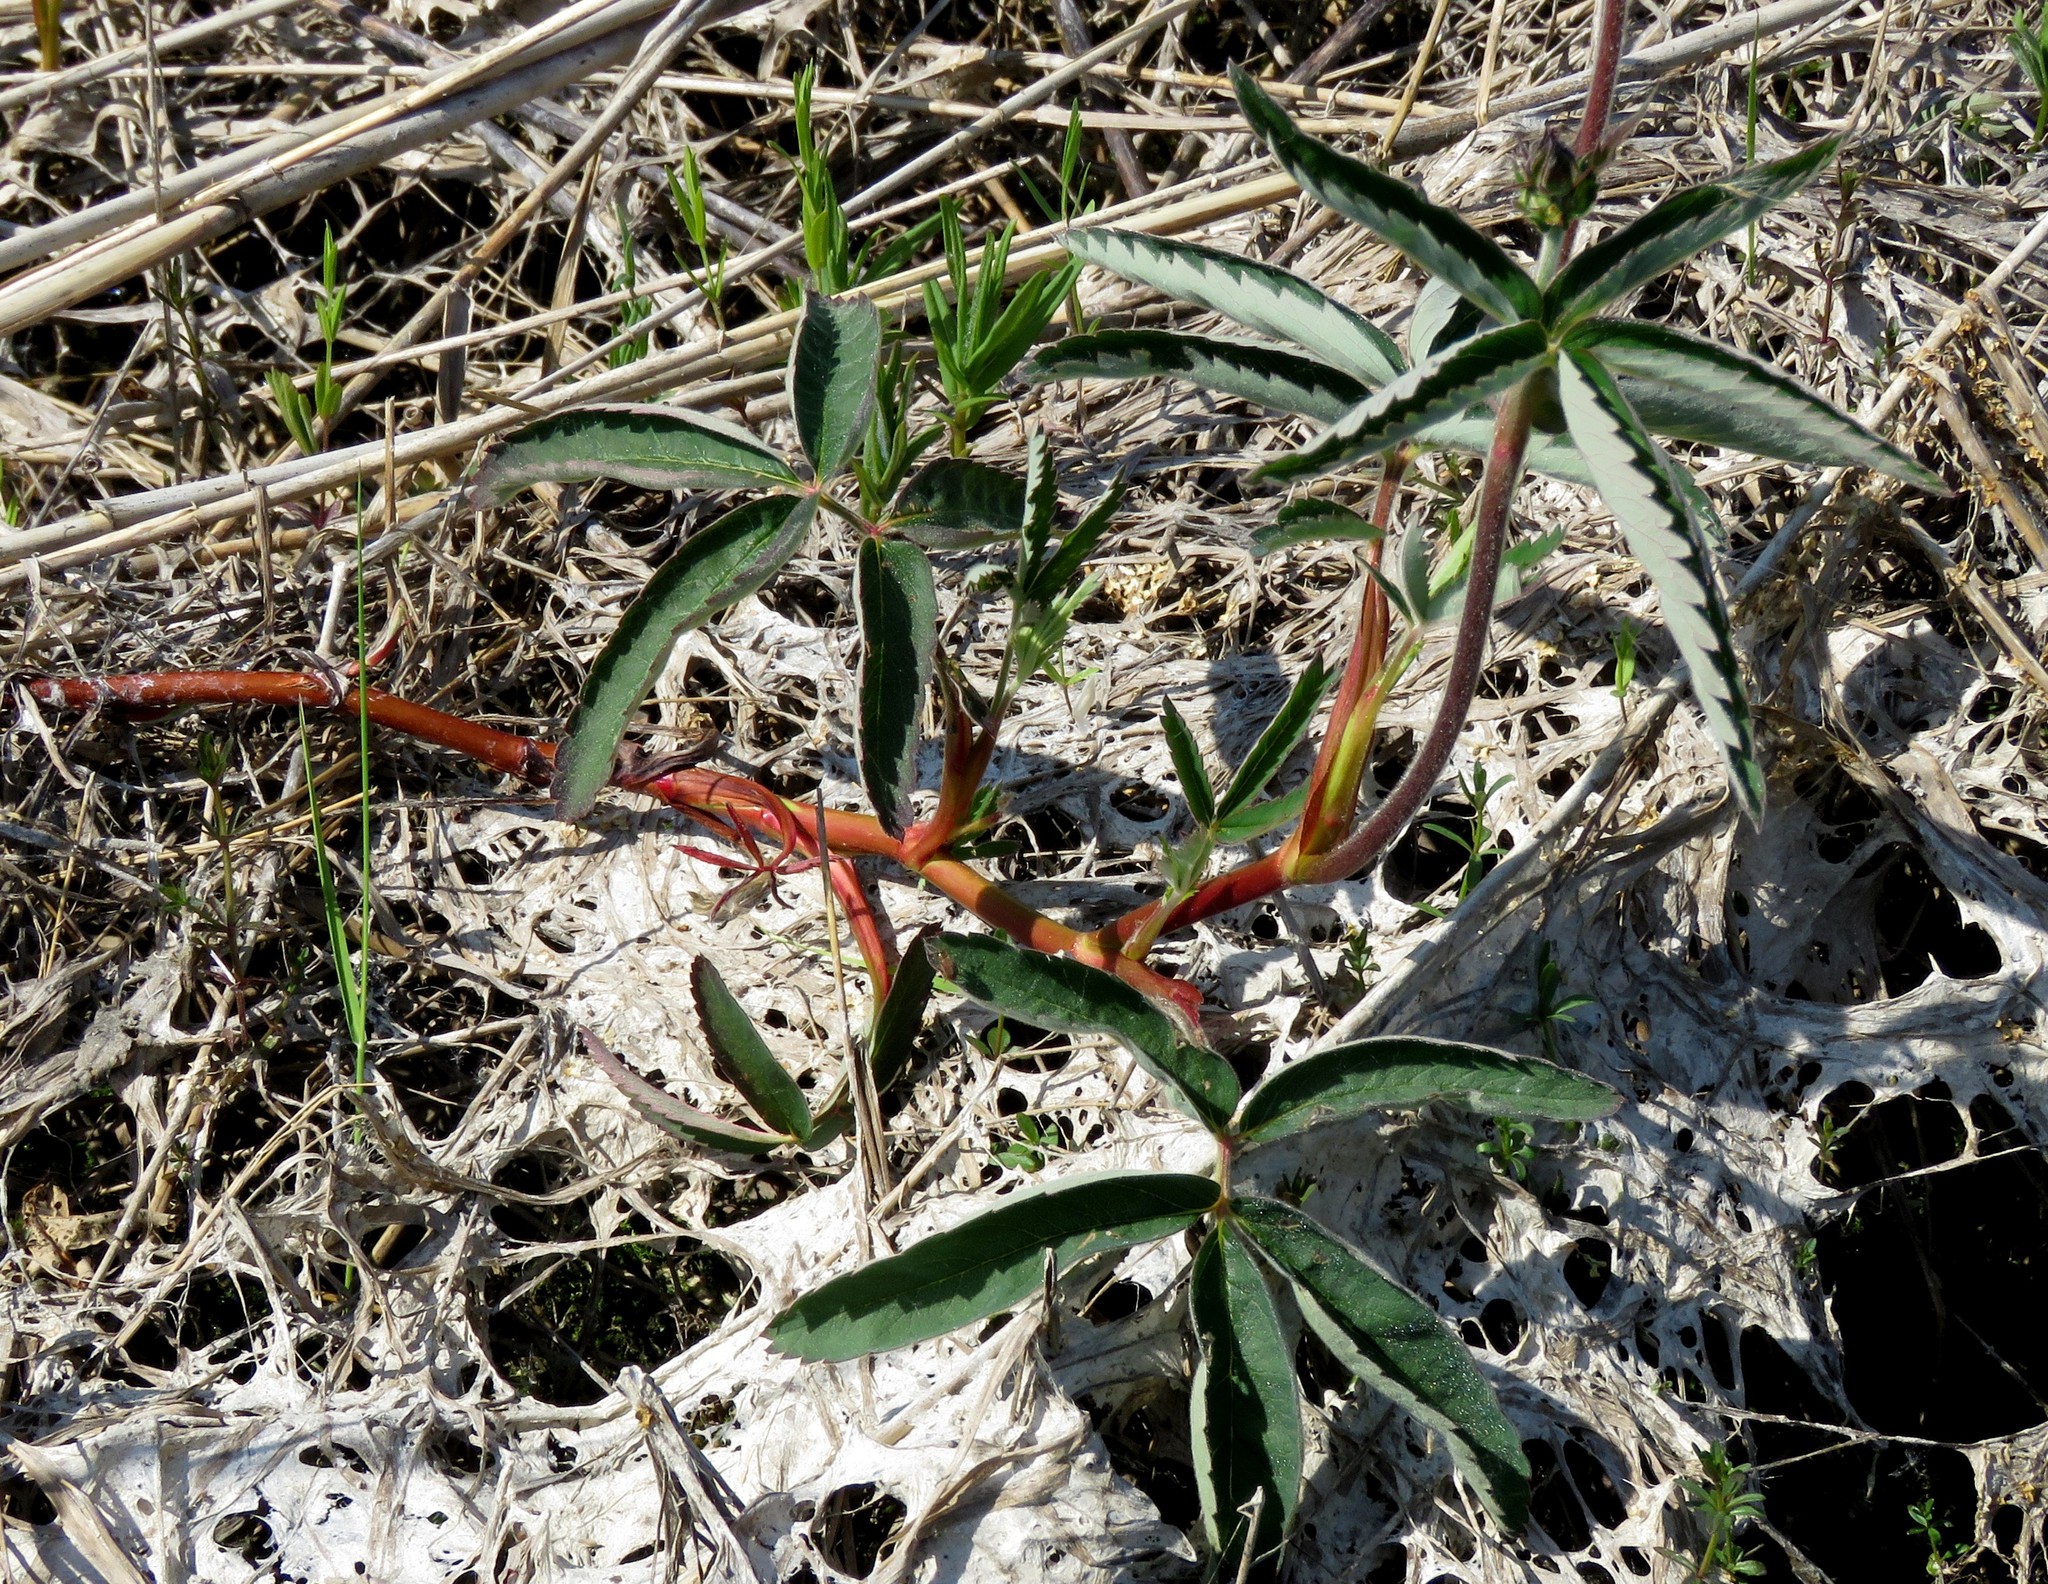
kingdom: Plantae
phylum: Tracheophyta
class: Magnoliopsida
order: Rosales
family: Rosaceae
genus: Comarum
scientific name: Comarum palustre
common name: Marsh cinquefoil
